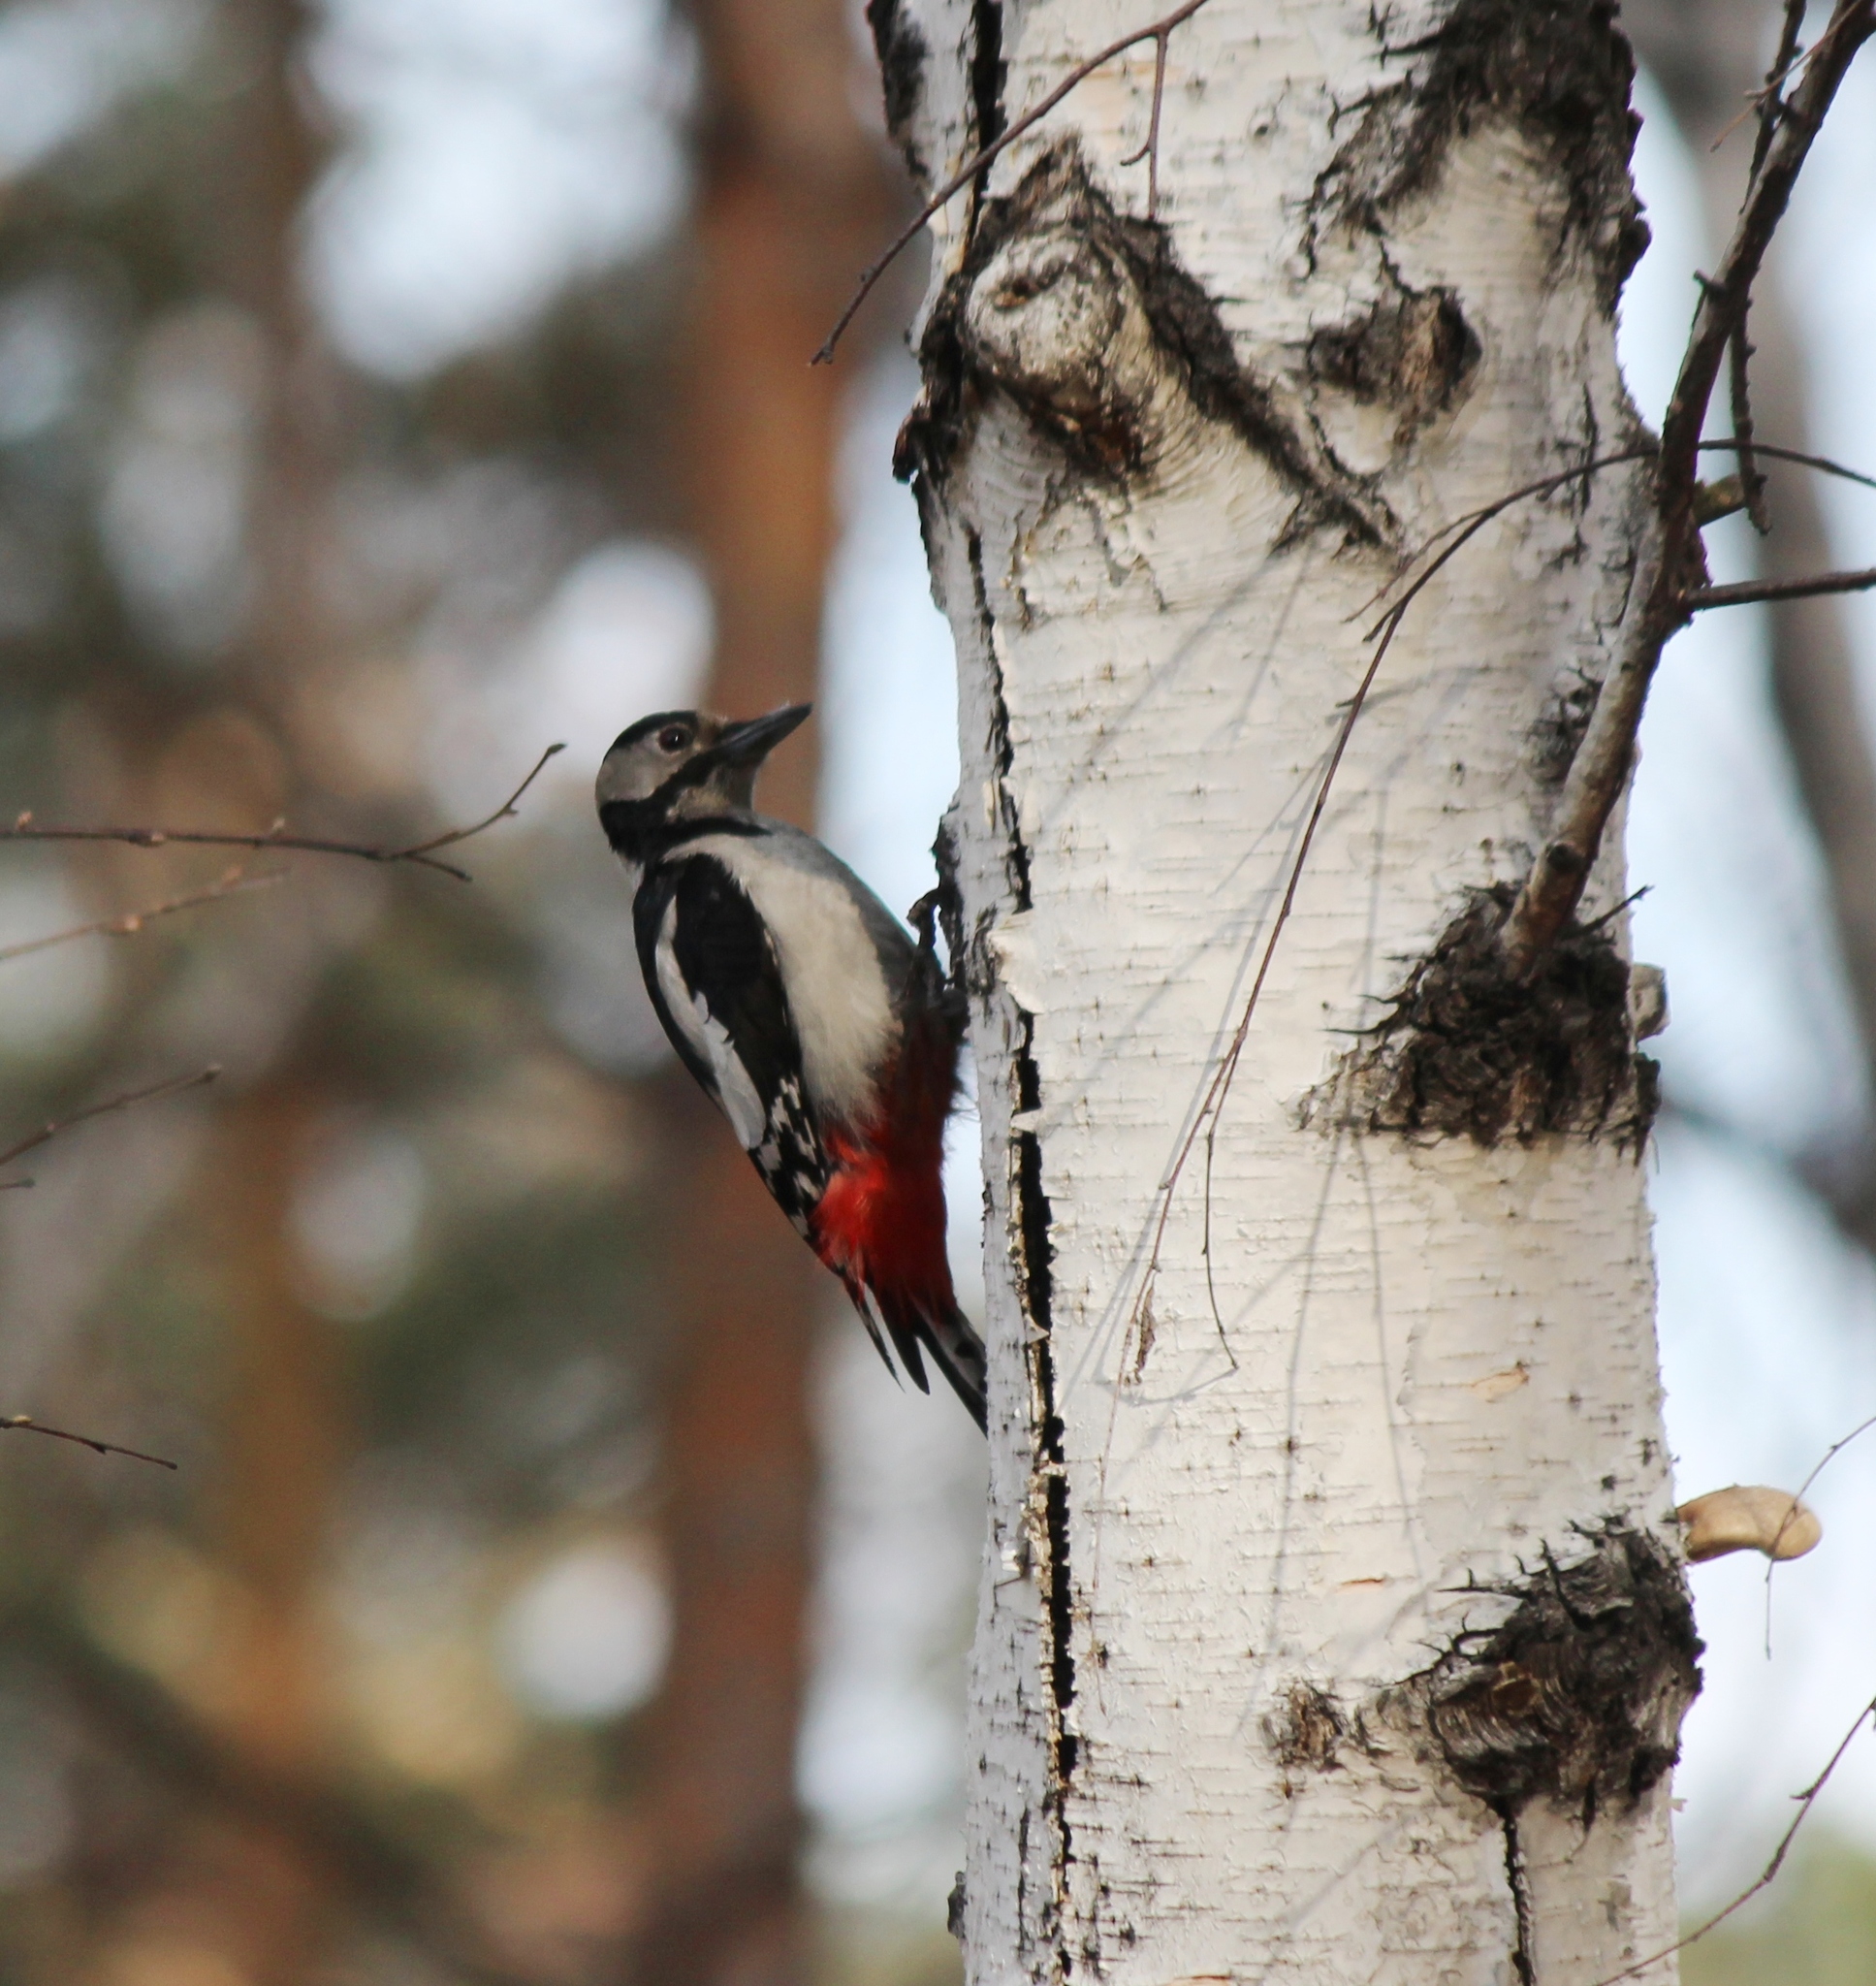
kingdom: Animalia
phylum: Chordata
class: Aves
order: Piciformes
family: Picidae
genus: Dendrocopos
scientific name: Dendrocopos major
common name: Great spotted woodpecker
